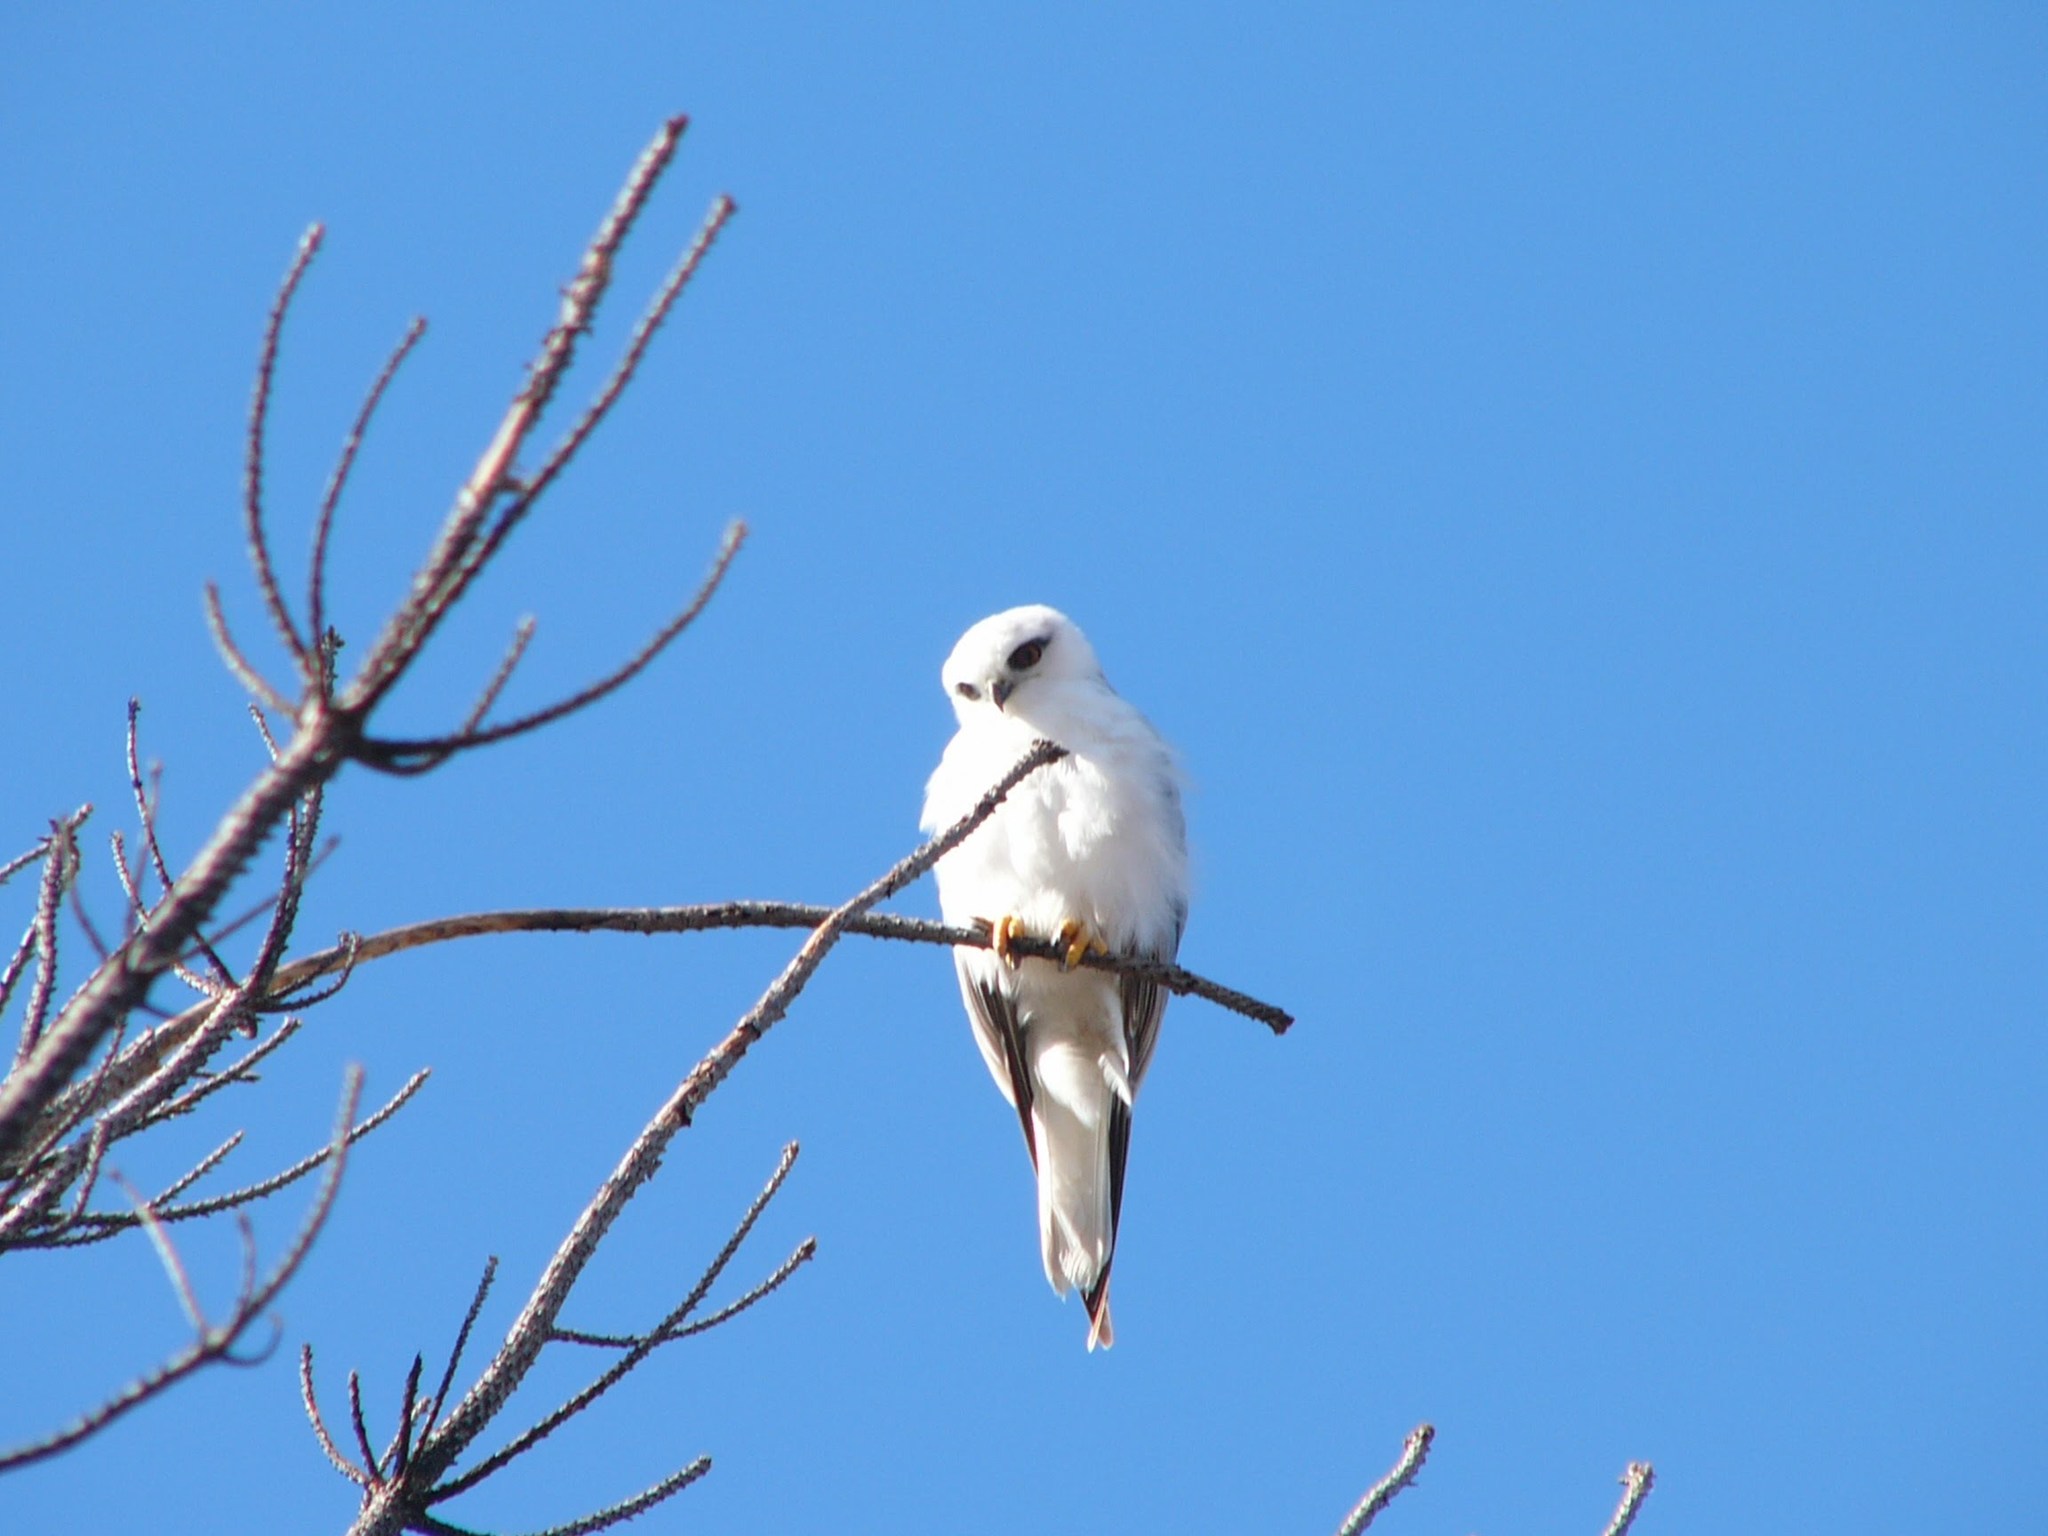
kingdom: Animalia
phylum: Chordata
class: Aves
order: Accipitriformes
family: Accipitridae
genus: Elanus
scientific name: Elanus axillaris
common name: Black-shouldered kite
